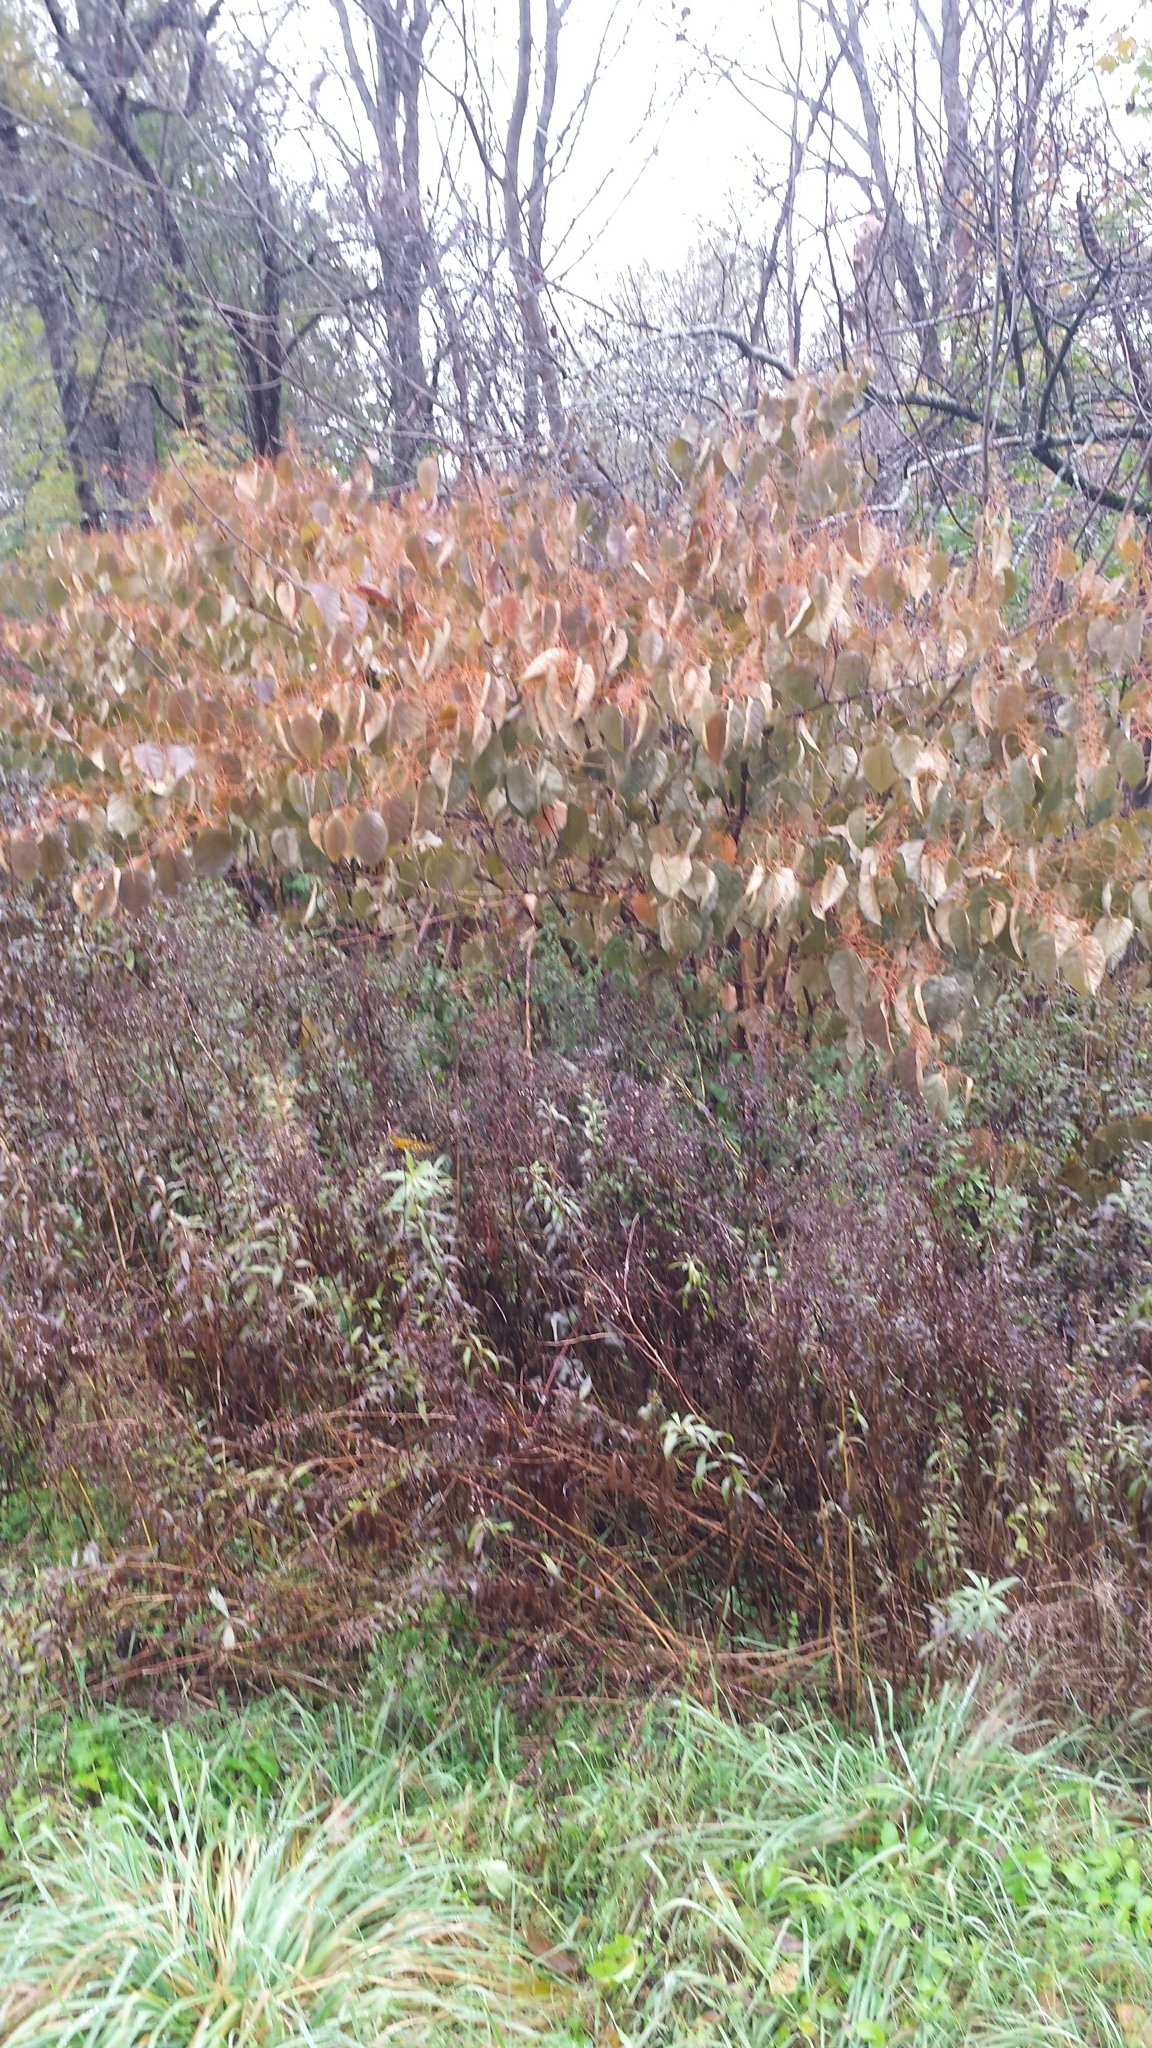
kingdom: Plantae
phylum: Tracheophyta
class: Magnoliopsida
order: Caryophyllales
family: Polygonaceae
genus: Reynoutria
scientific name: Reynoutria japonica
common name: Japanese knotweed
